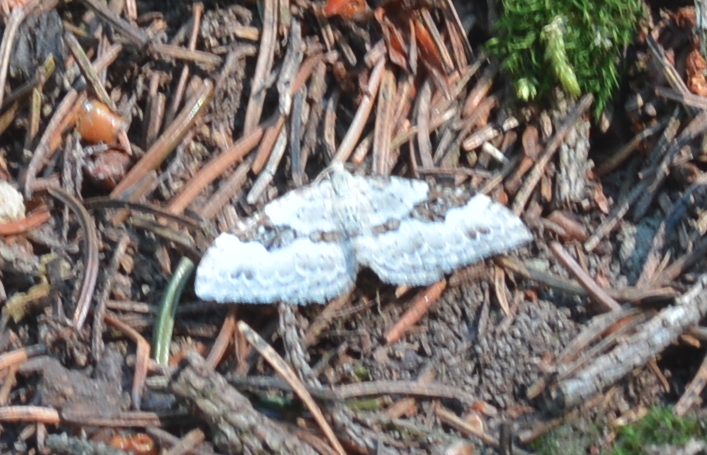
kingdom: Animalia
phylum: Arthropoda
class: Insecta
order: Lepidoptera
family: Geometridae
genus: Xanthorhoe
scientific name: Xanthorhoe montanata
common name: Silver-ground carpet
